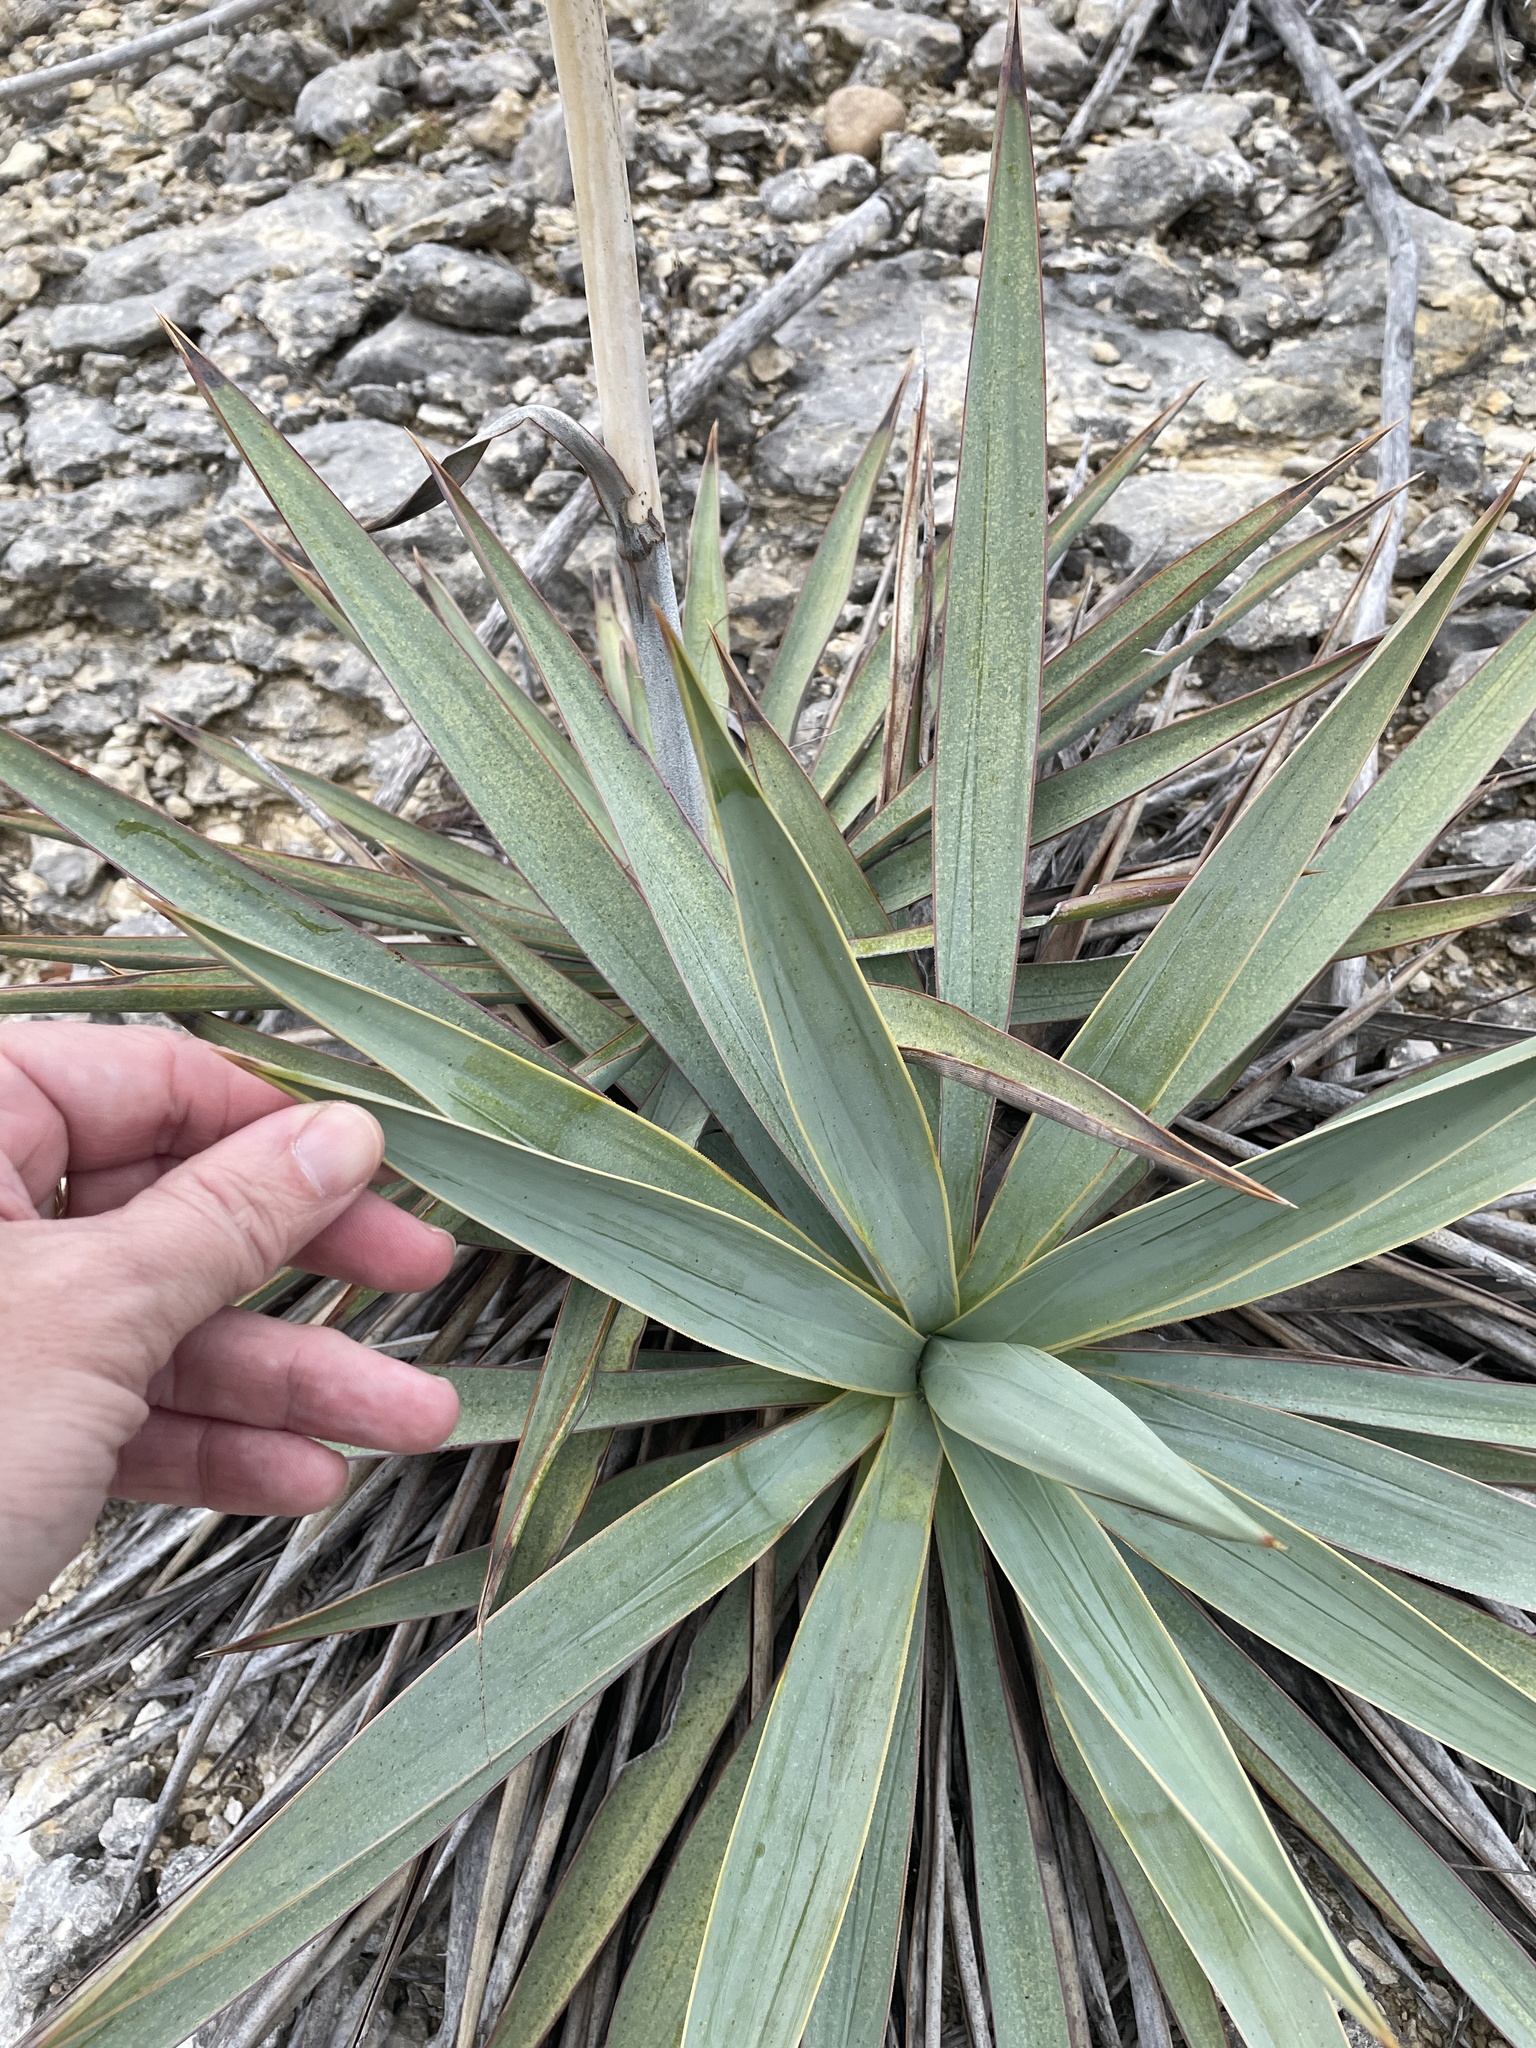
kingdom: Plantae
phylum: Tracheophyta
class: Liliopsida
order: Asparagales
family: Asparagaceae
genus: Yucca
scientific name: Yucca pallida
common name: Pale leaf yucca
